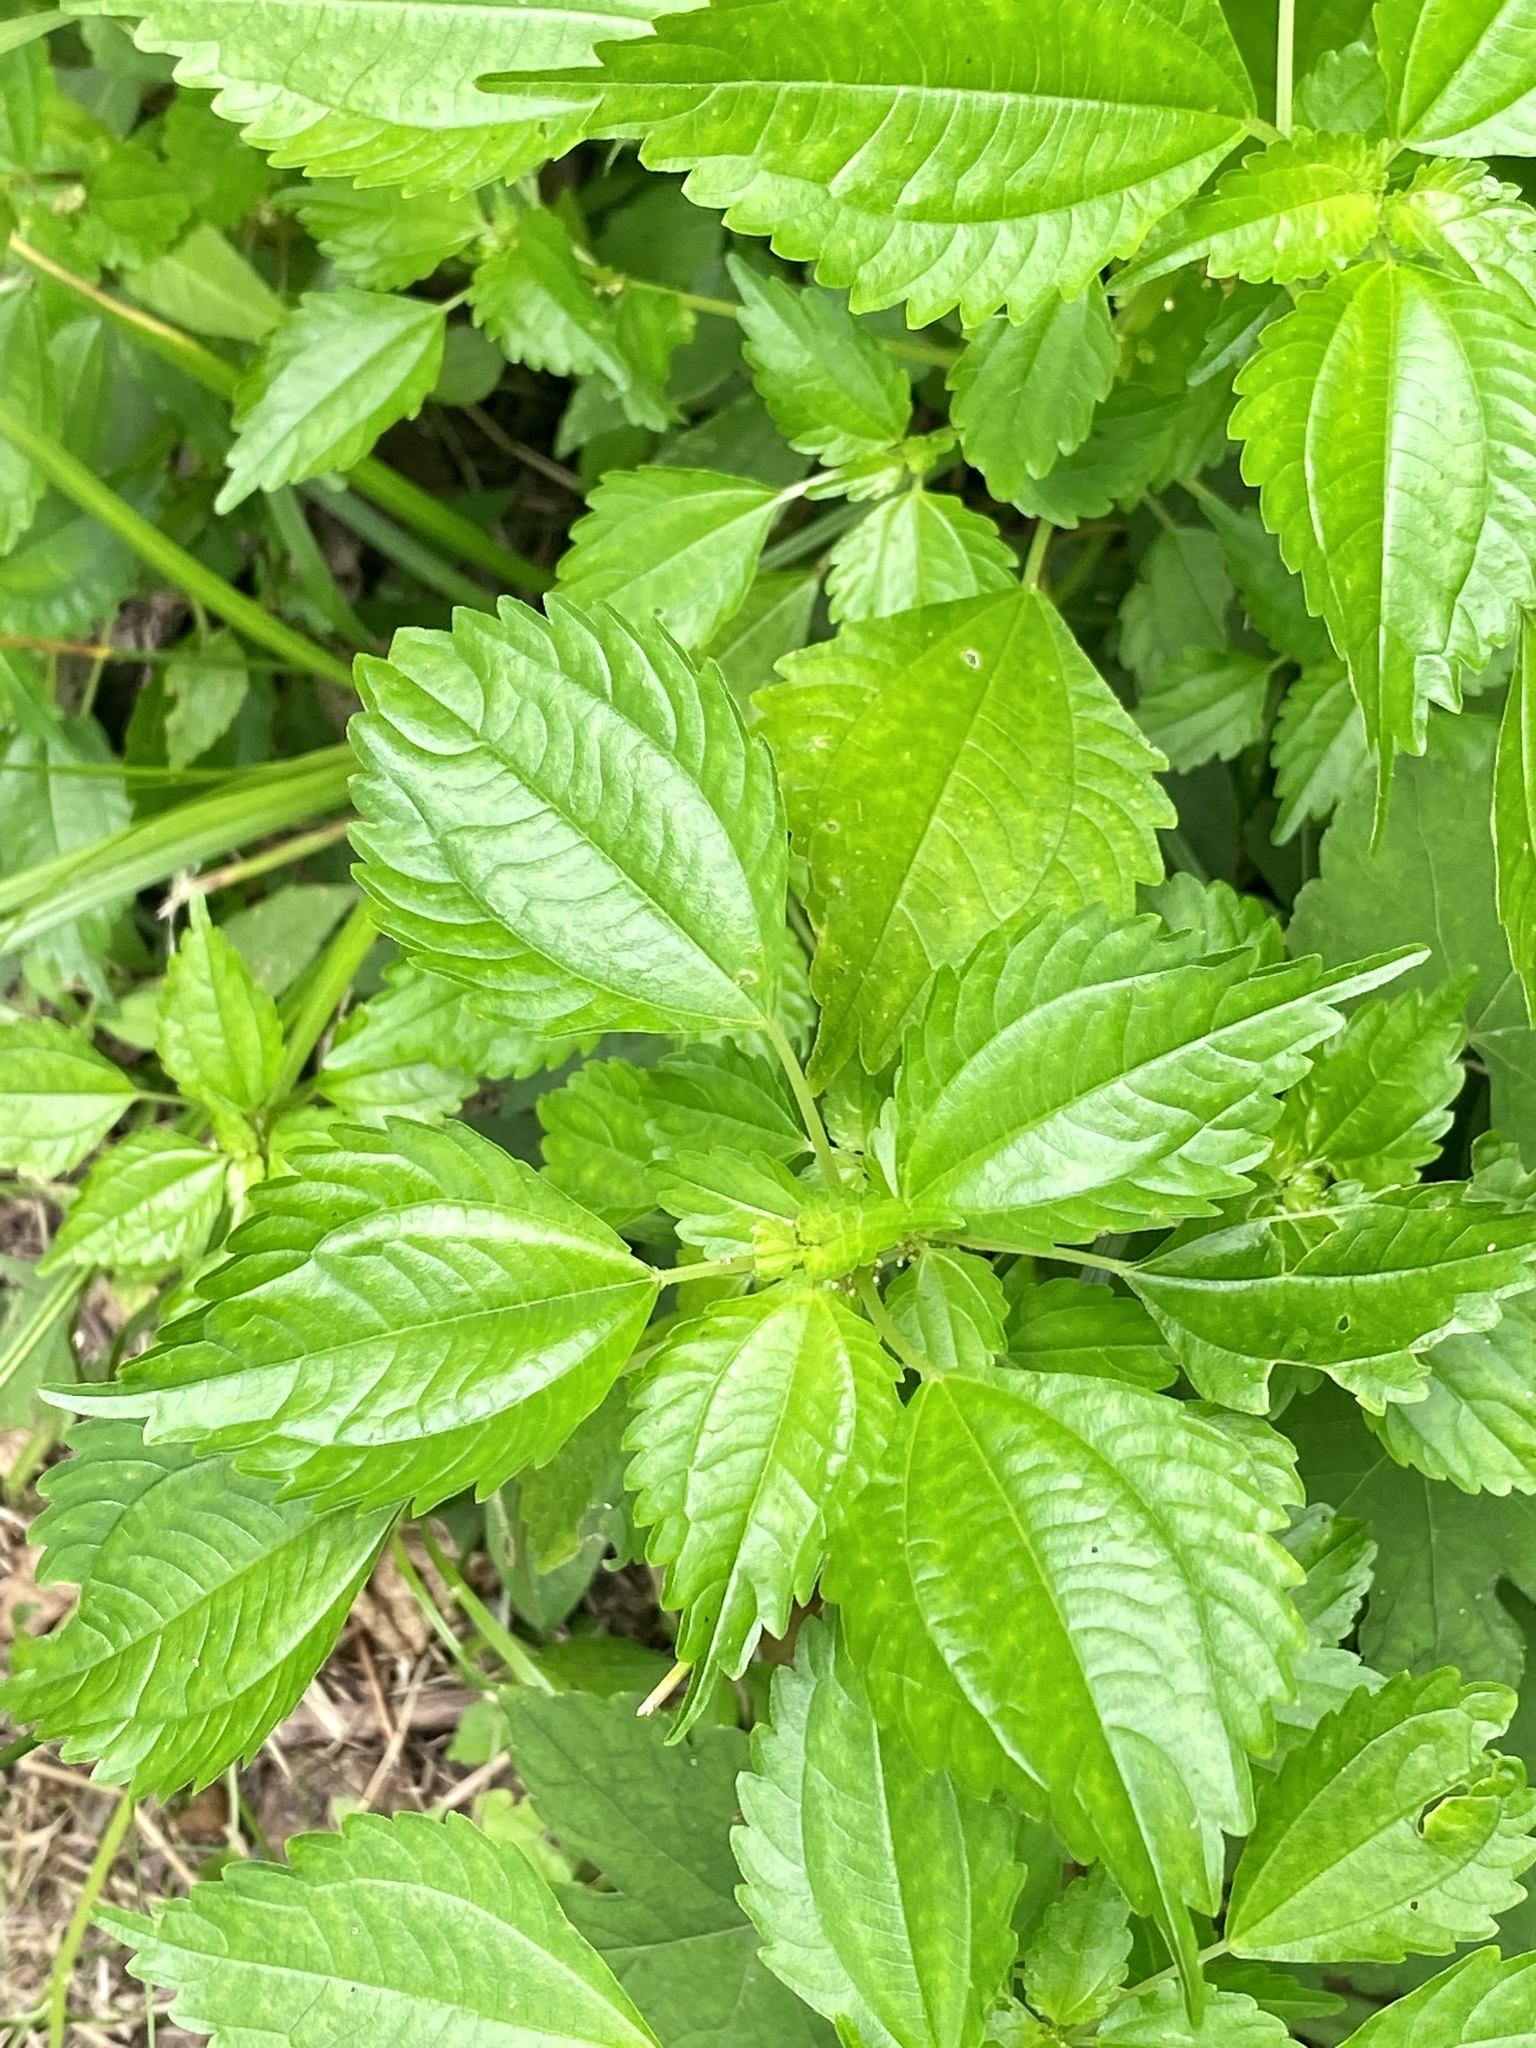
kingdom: Plantae
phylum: Tracheophyta
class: Magnoliopsida
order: Rosales
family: Urticaceae
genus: Pilea
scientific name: Pilea pumila
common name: Clearweed
